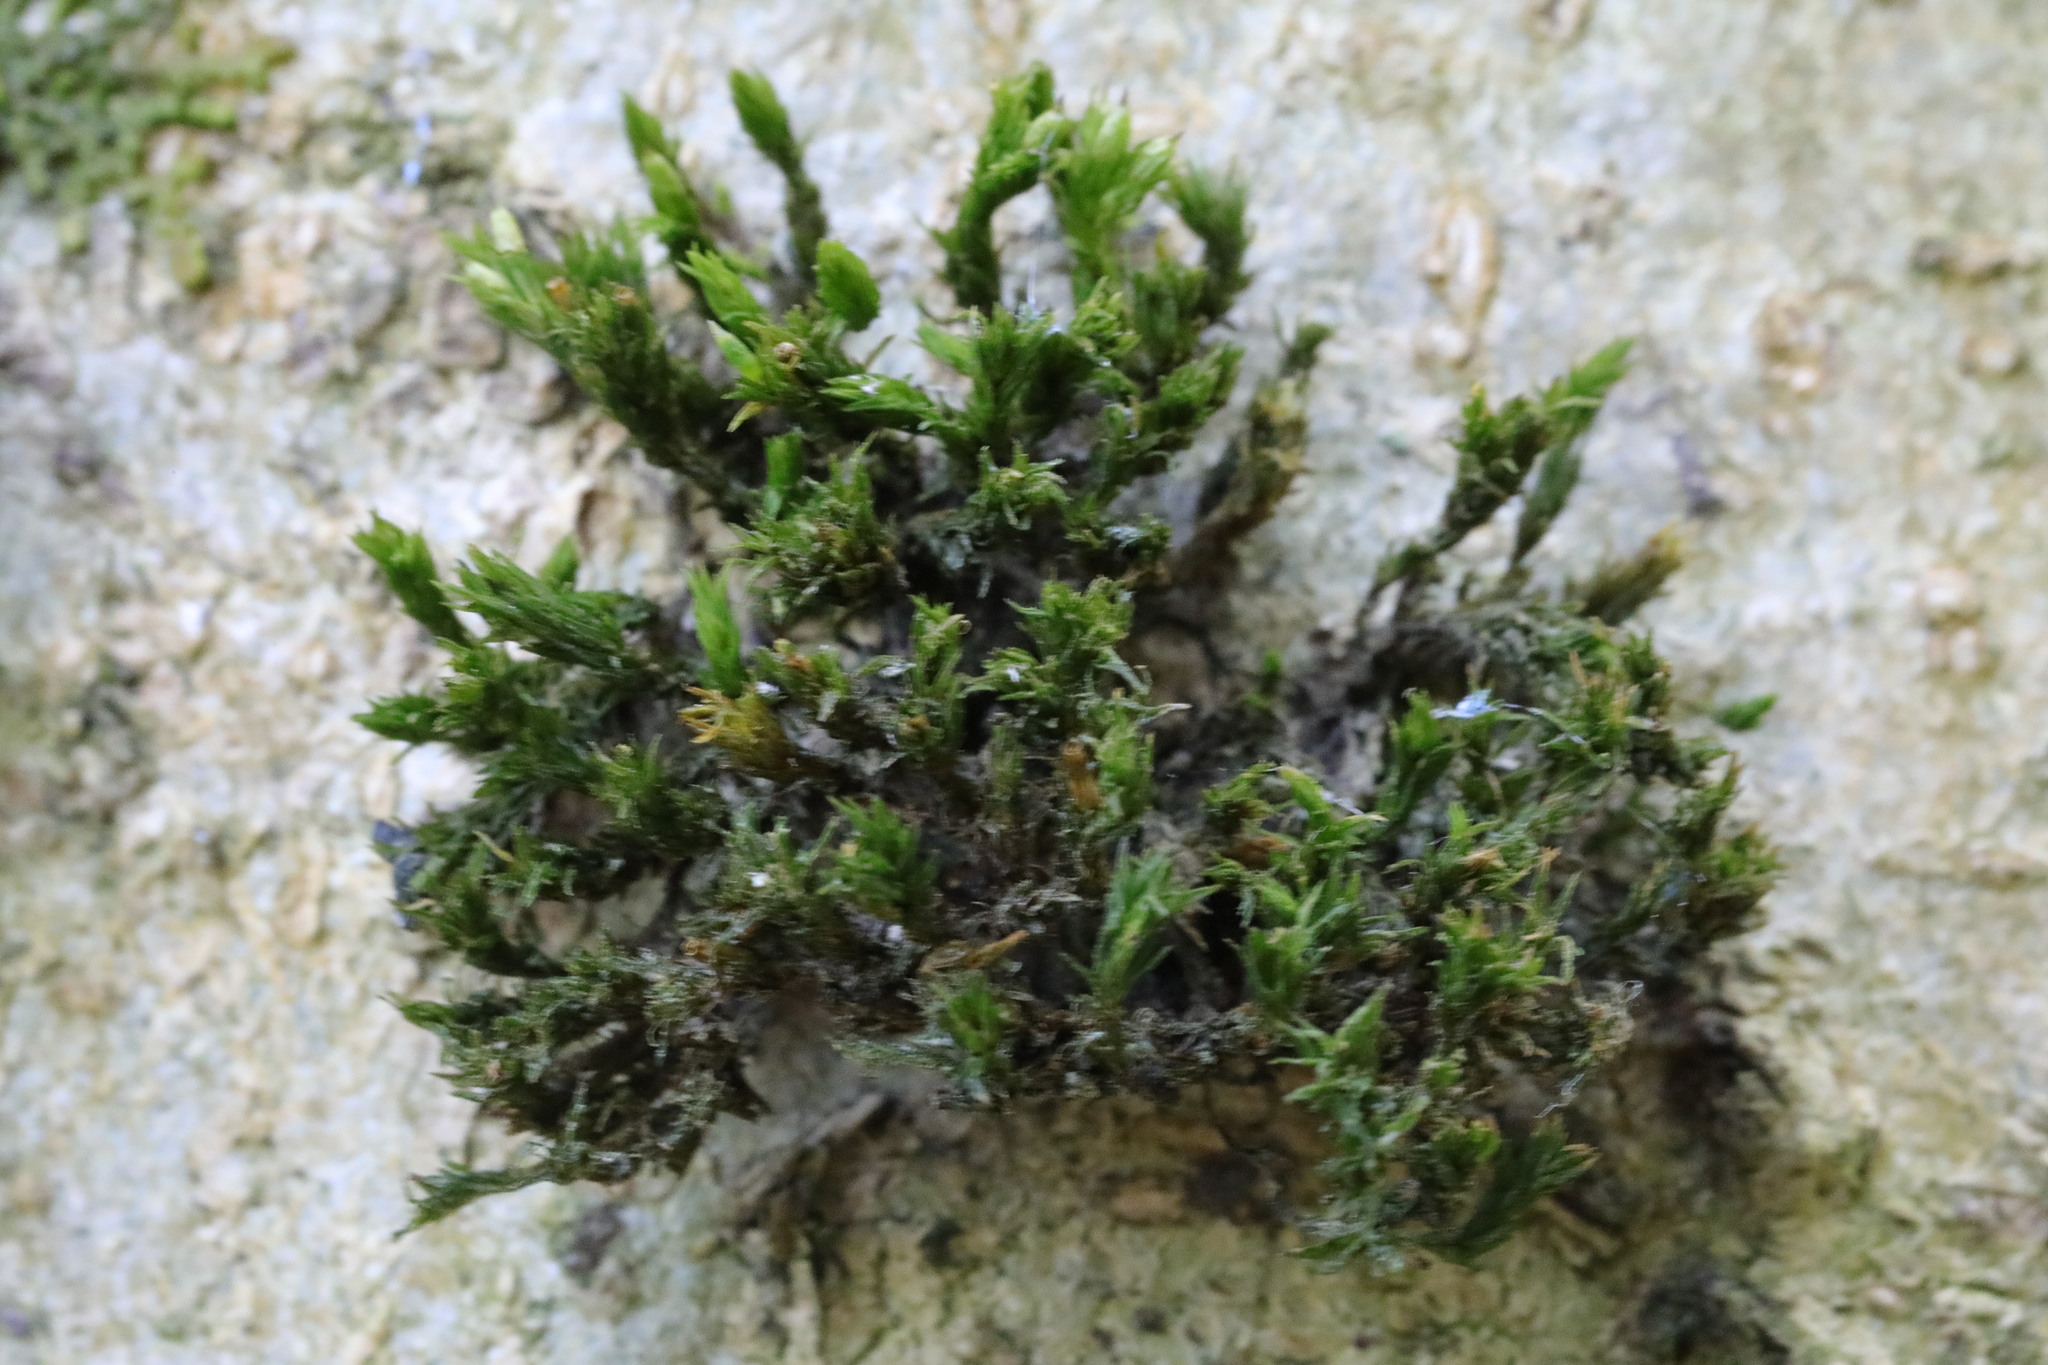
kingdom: Plantae
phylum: Bryophyta
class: Bryopsida
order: Orthotrichales
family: Orthotrichaceae
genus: Lewinskya
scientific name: Lewinskya affinis
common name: Wood bristle-moss
